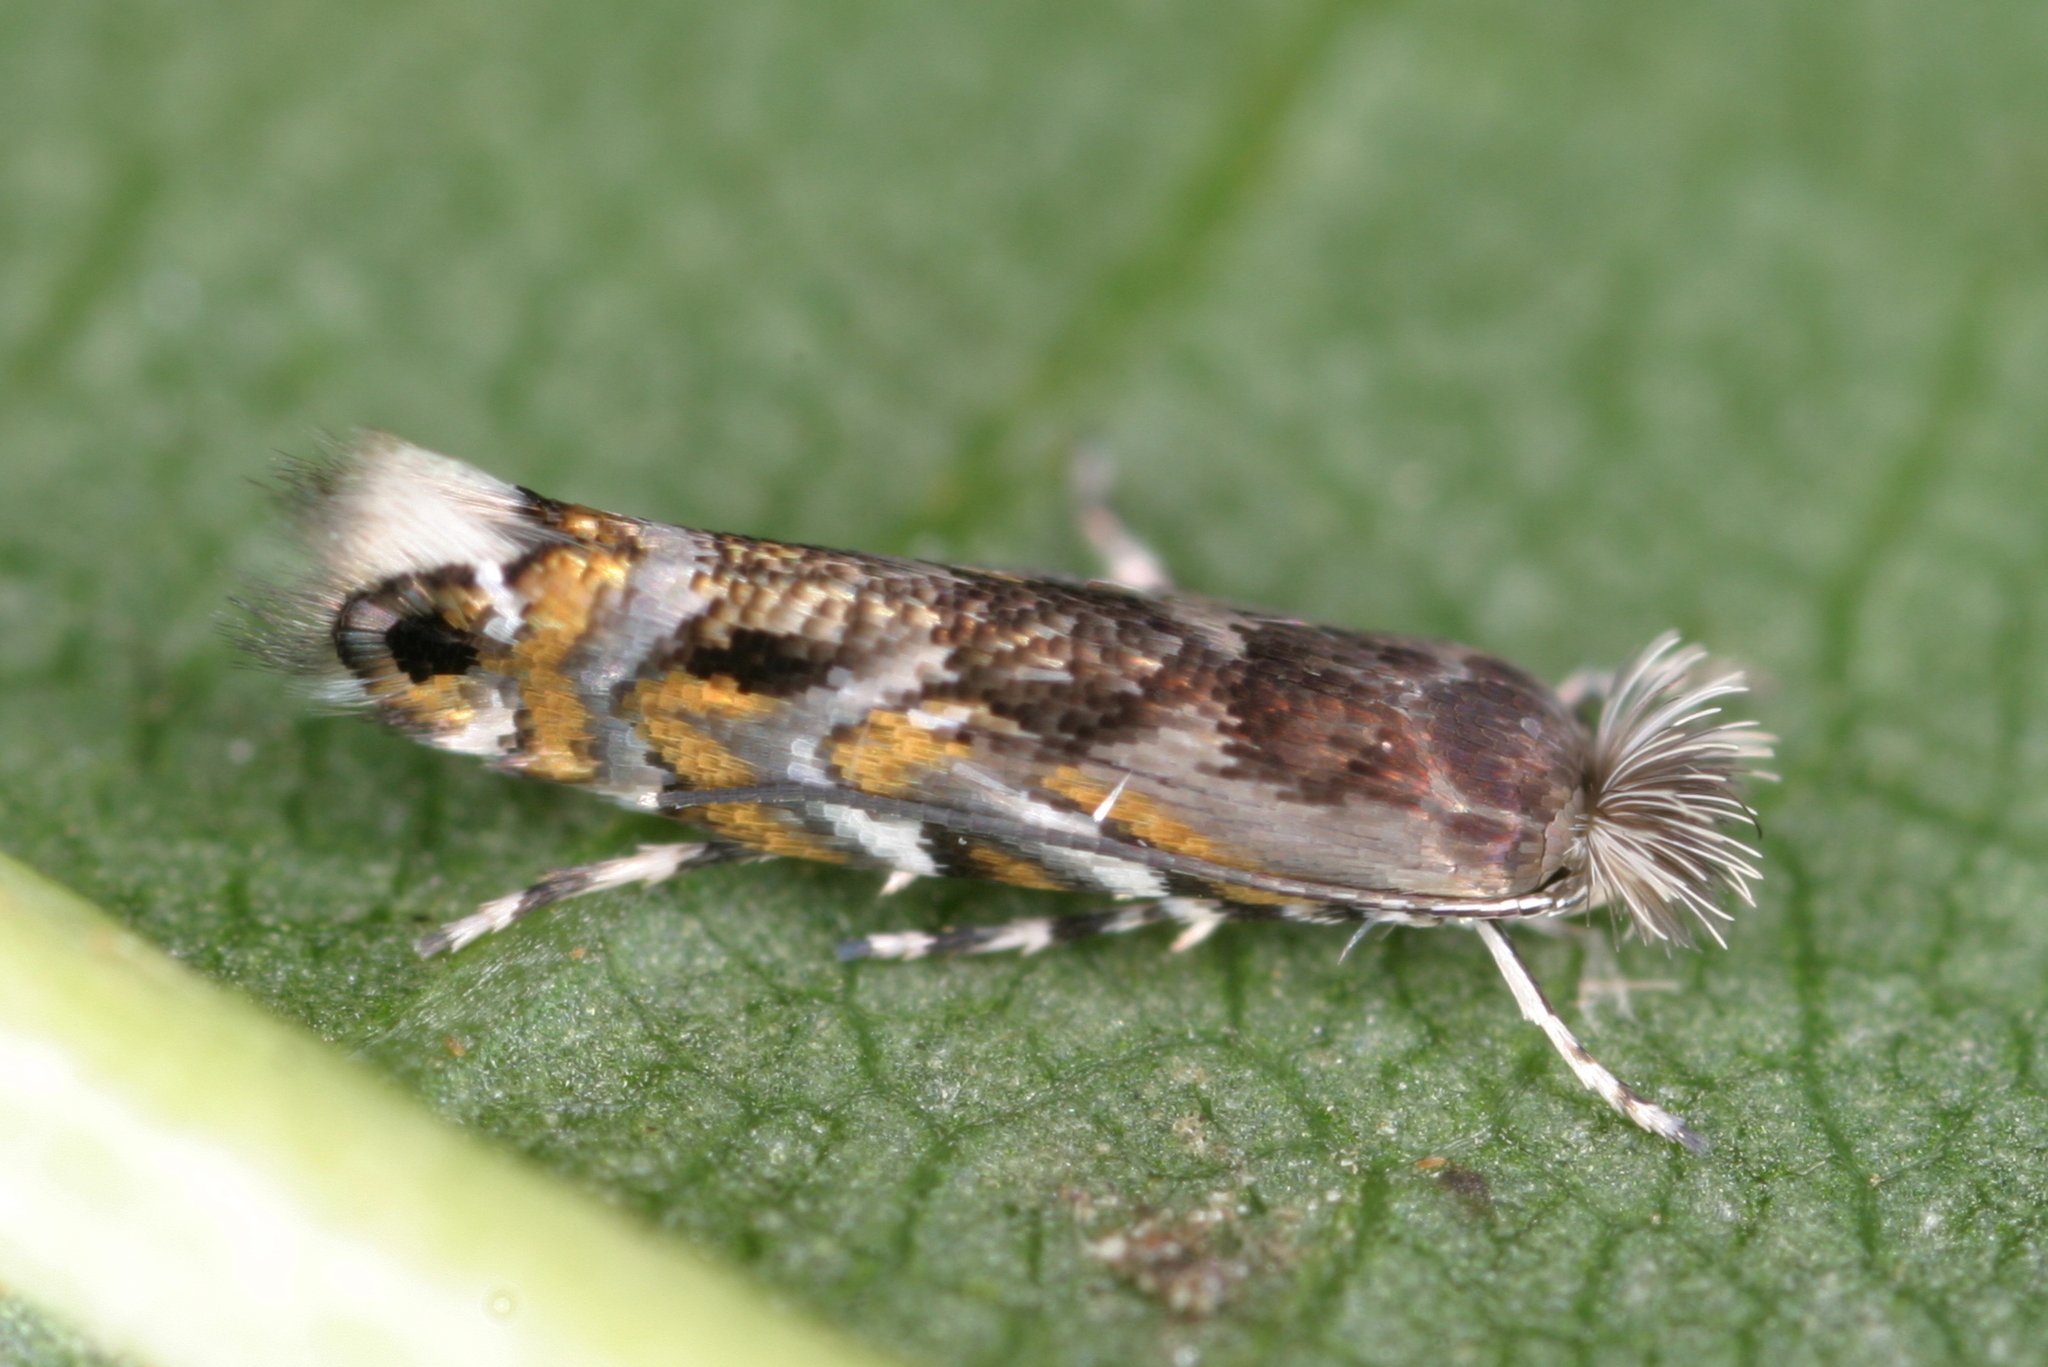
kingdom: Animalia
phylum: Arthropoda
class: Insecta
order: Lepidoptera
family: Gracillariidae
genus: Macrosaccus
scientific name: Macrosaccus robiniella
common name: Leaf blotch miner moth
